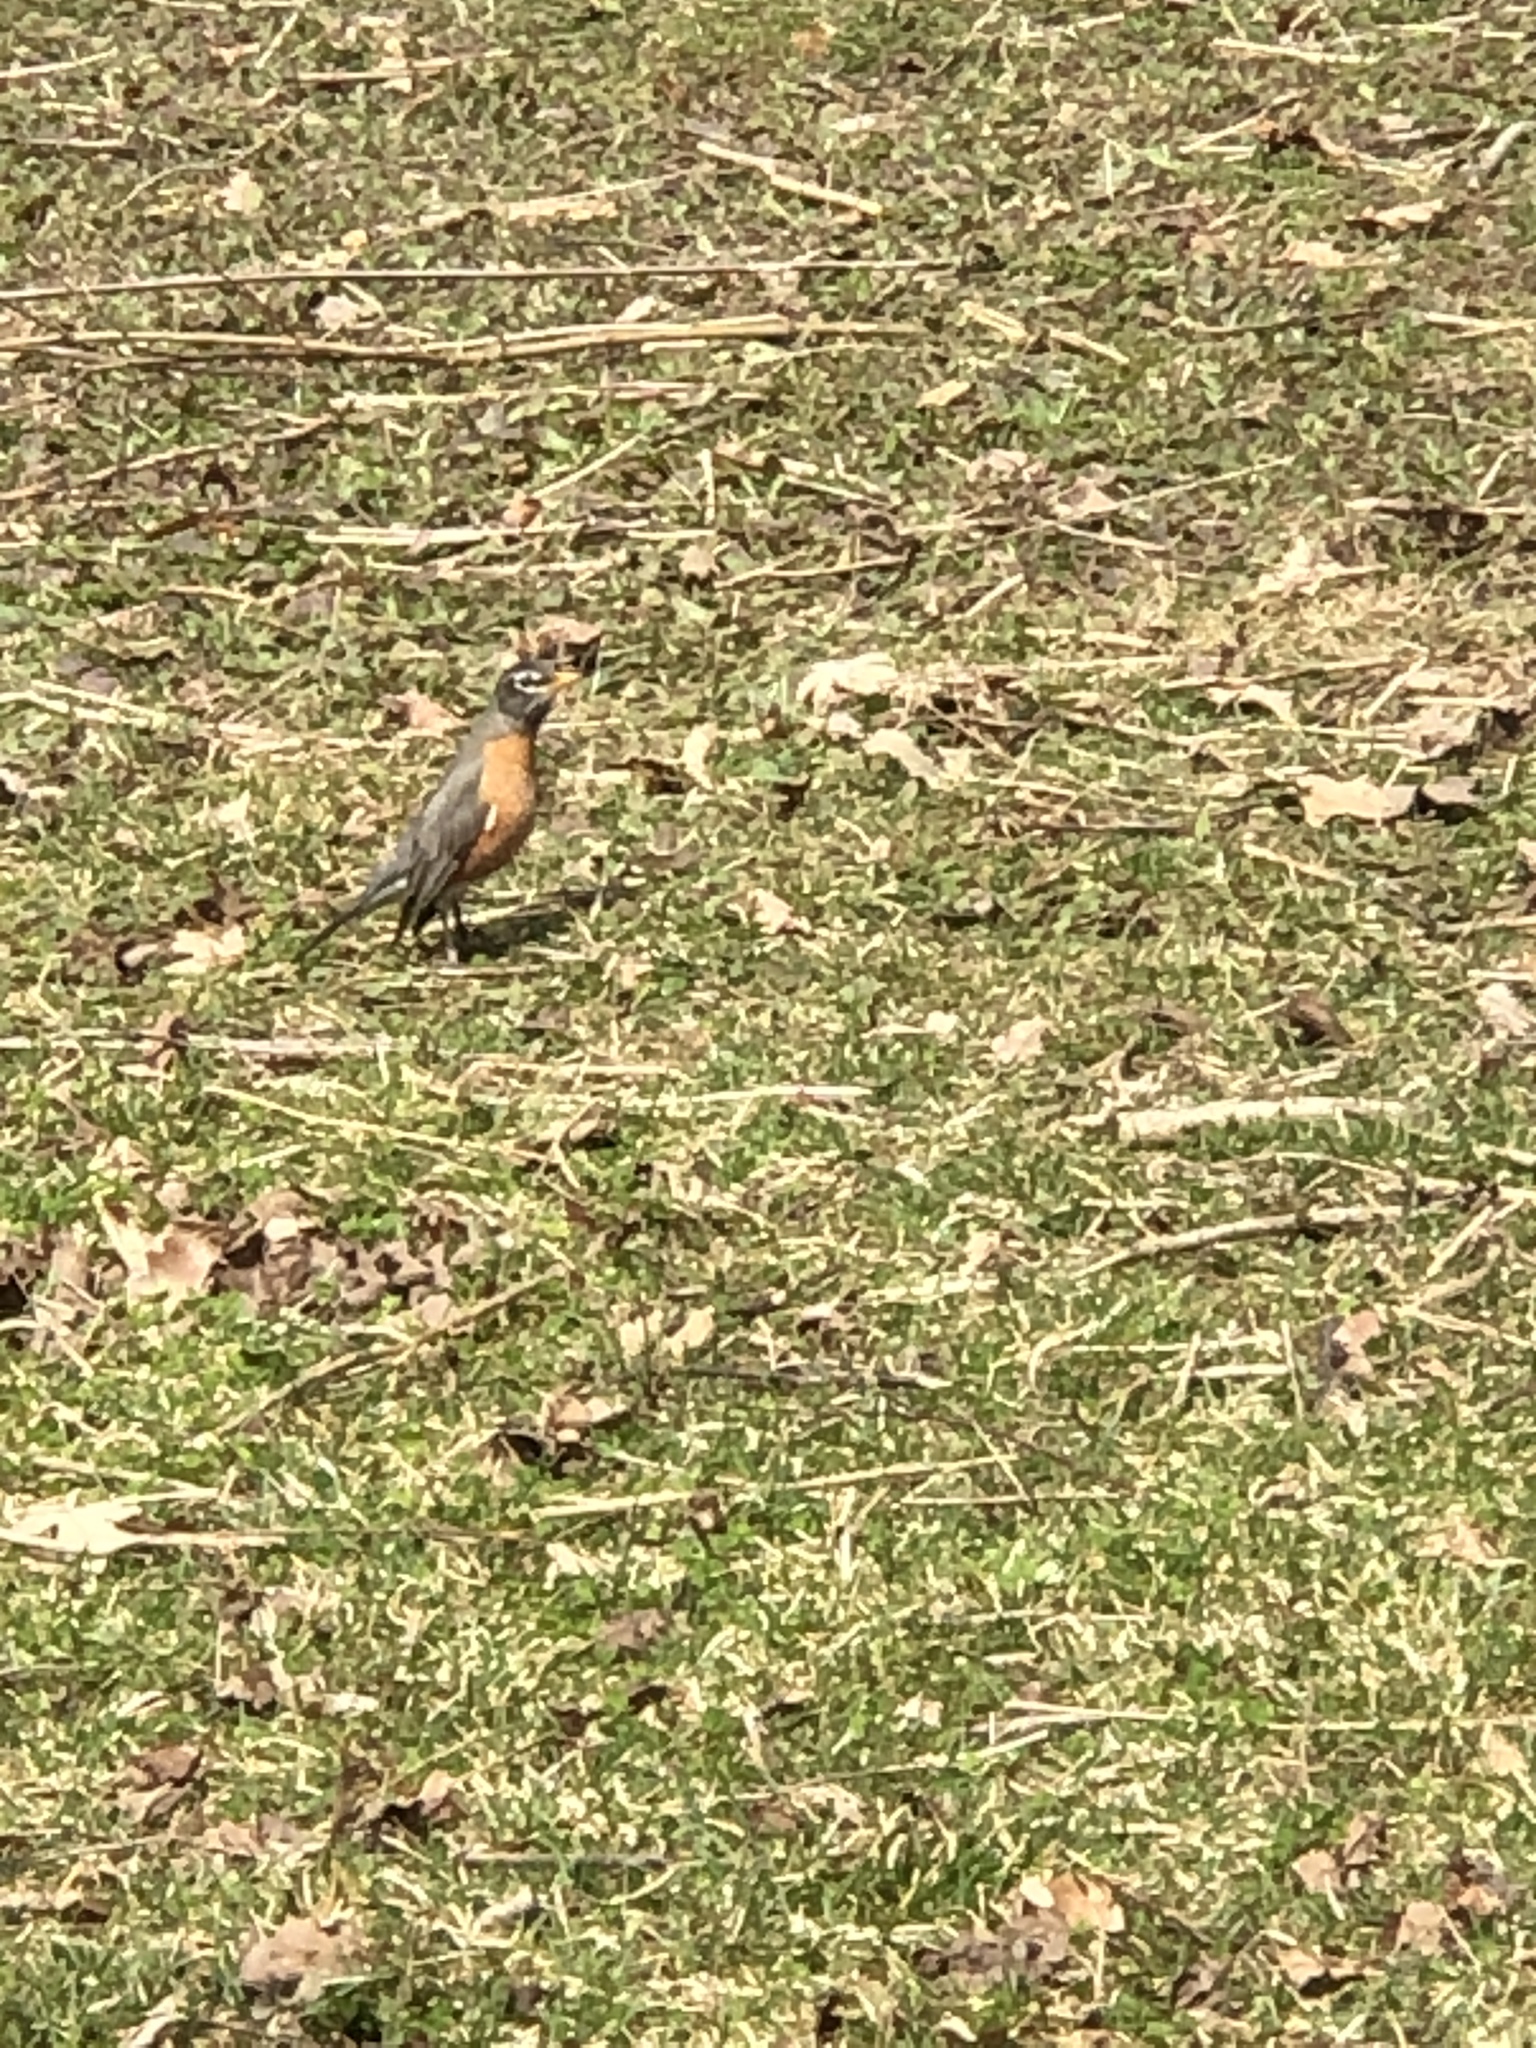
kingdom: Animalia
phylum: Chordata
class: Aves
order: Passeriformes
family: Turdidae
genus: Turdus
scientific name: Turdus migratorius
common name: American robin
